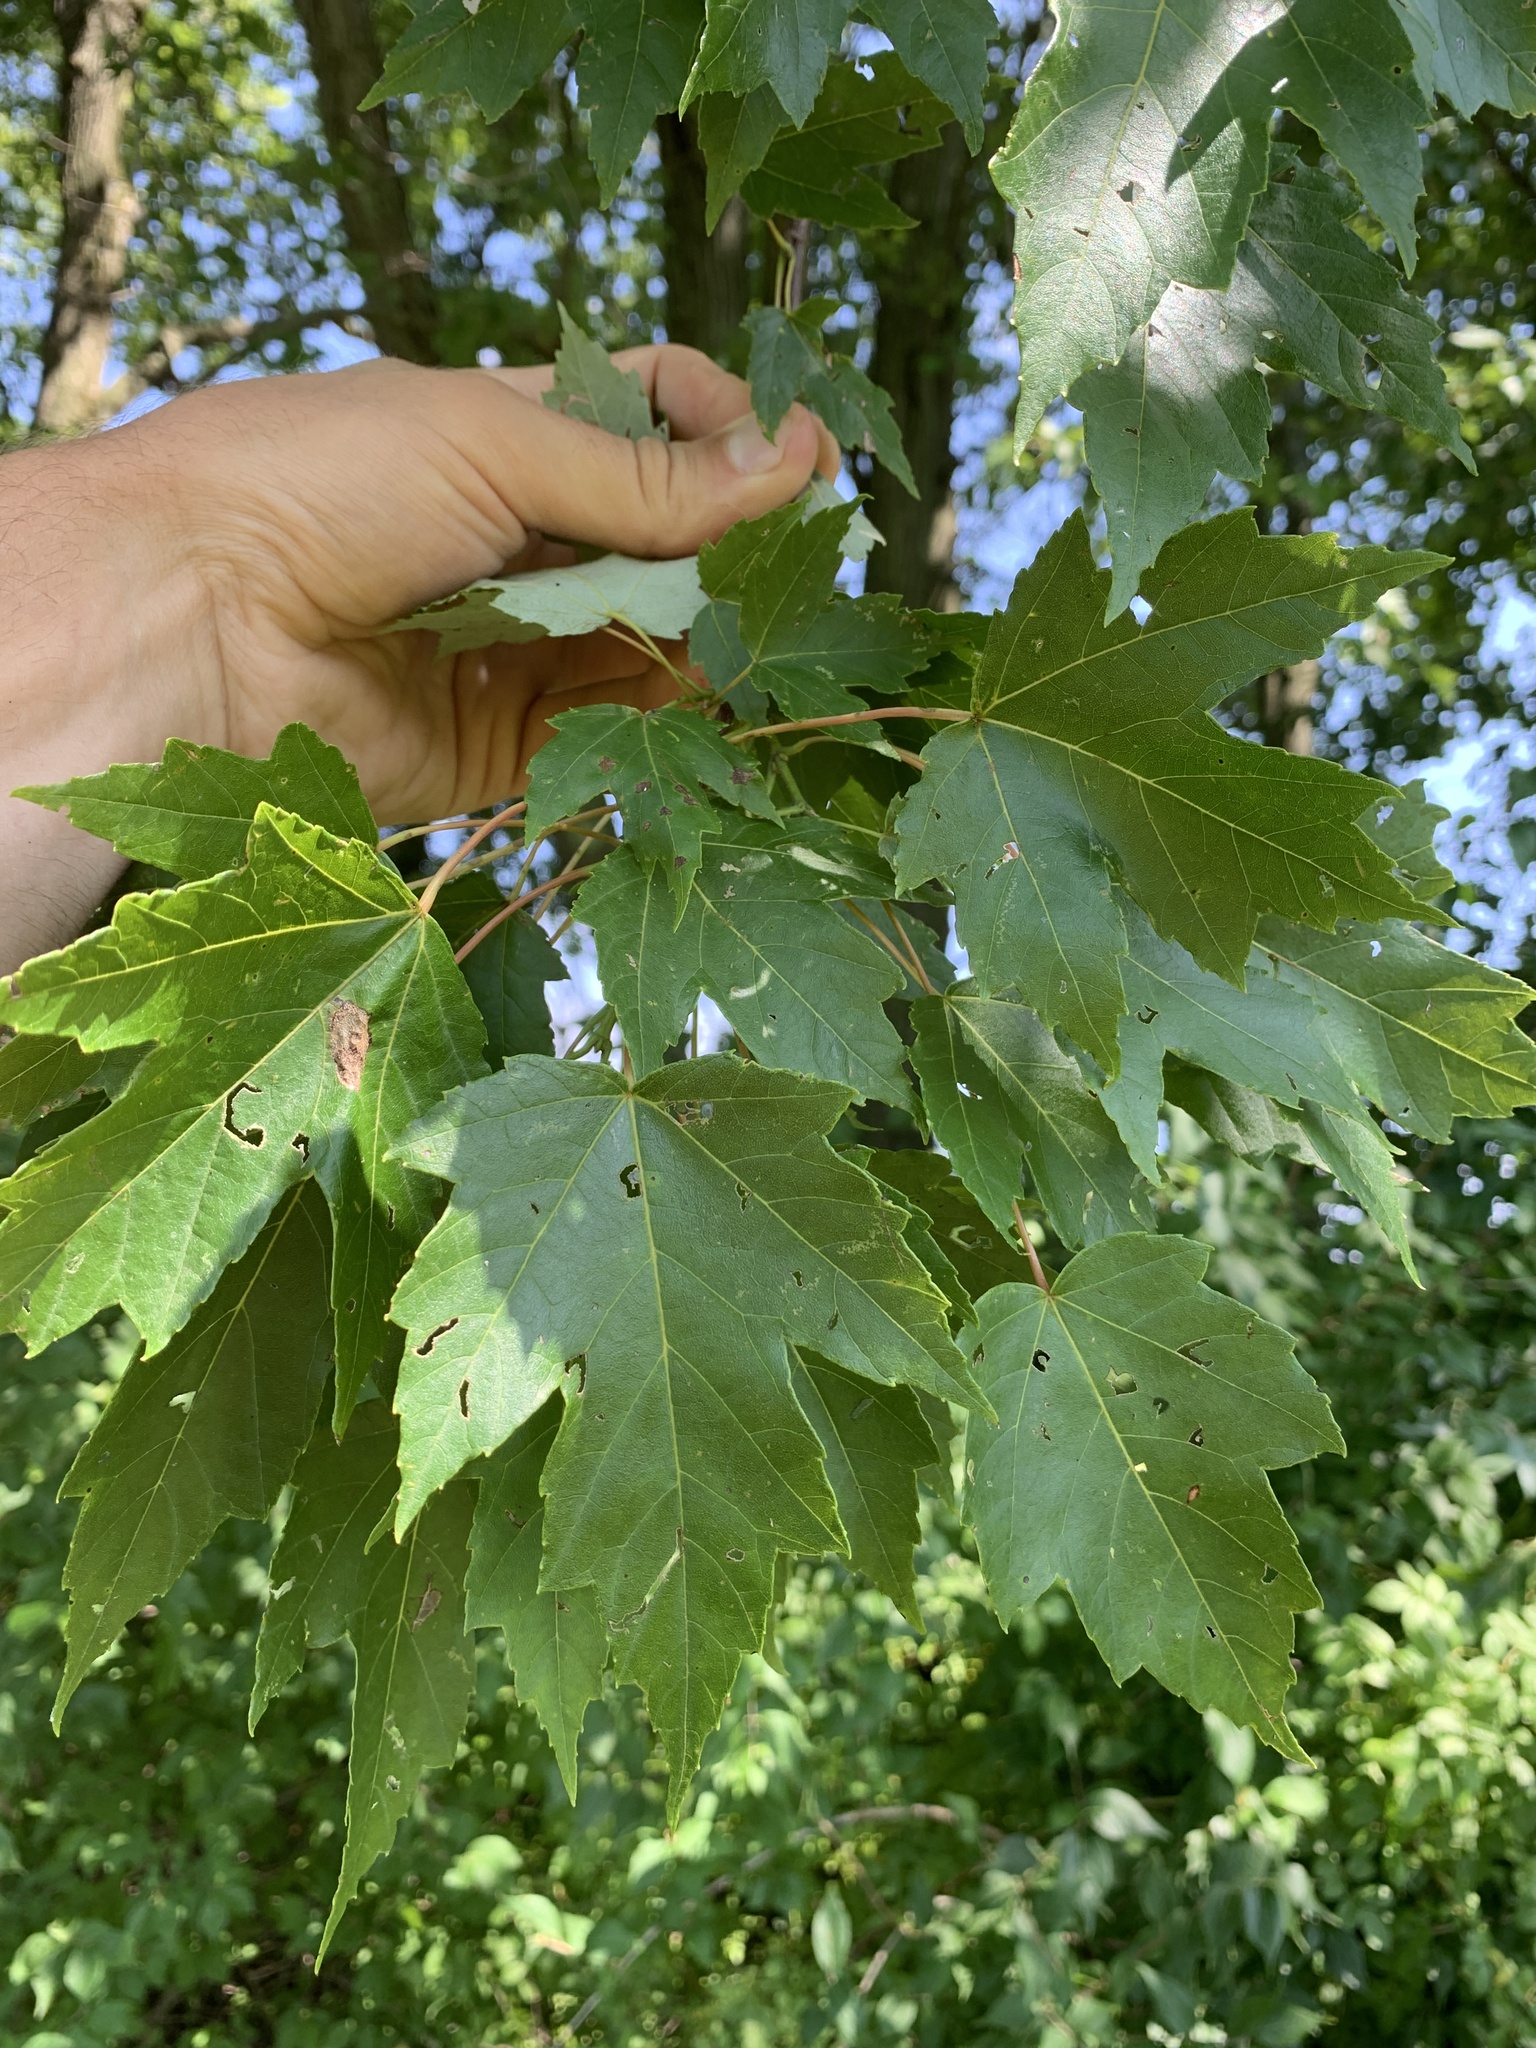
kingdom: Plantae
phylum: Tracheophyta
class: Magnoliopsida
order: Sapindales
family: Sapindaceae
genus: Acer
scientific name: Acer rubrum
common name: Red maple
